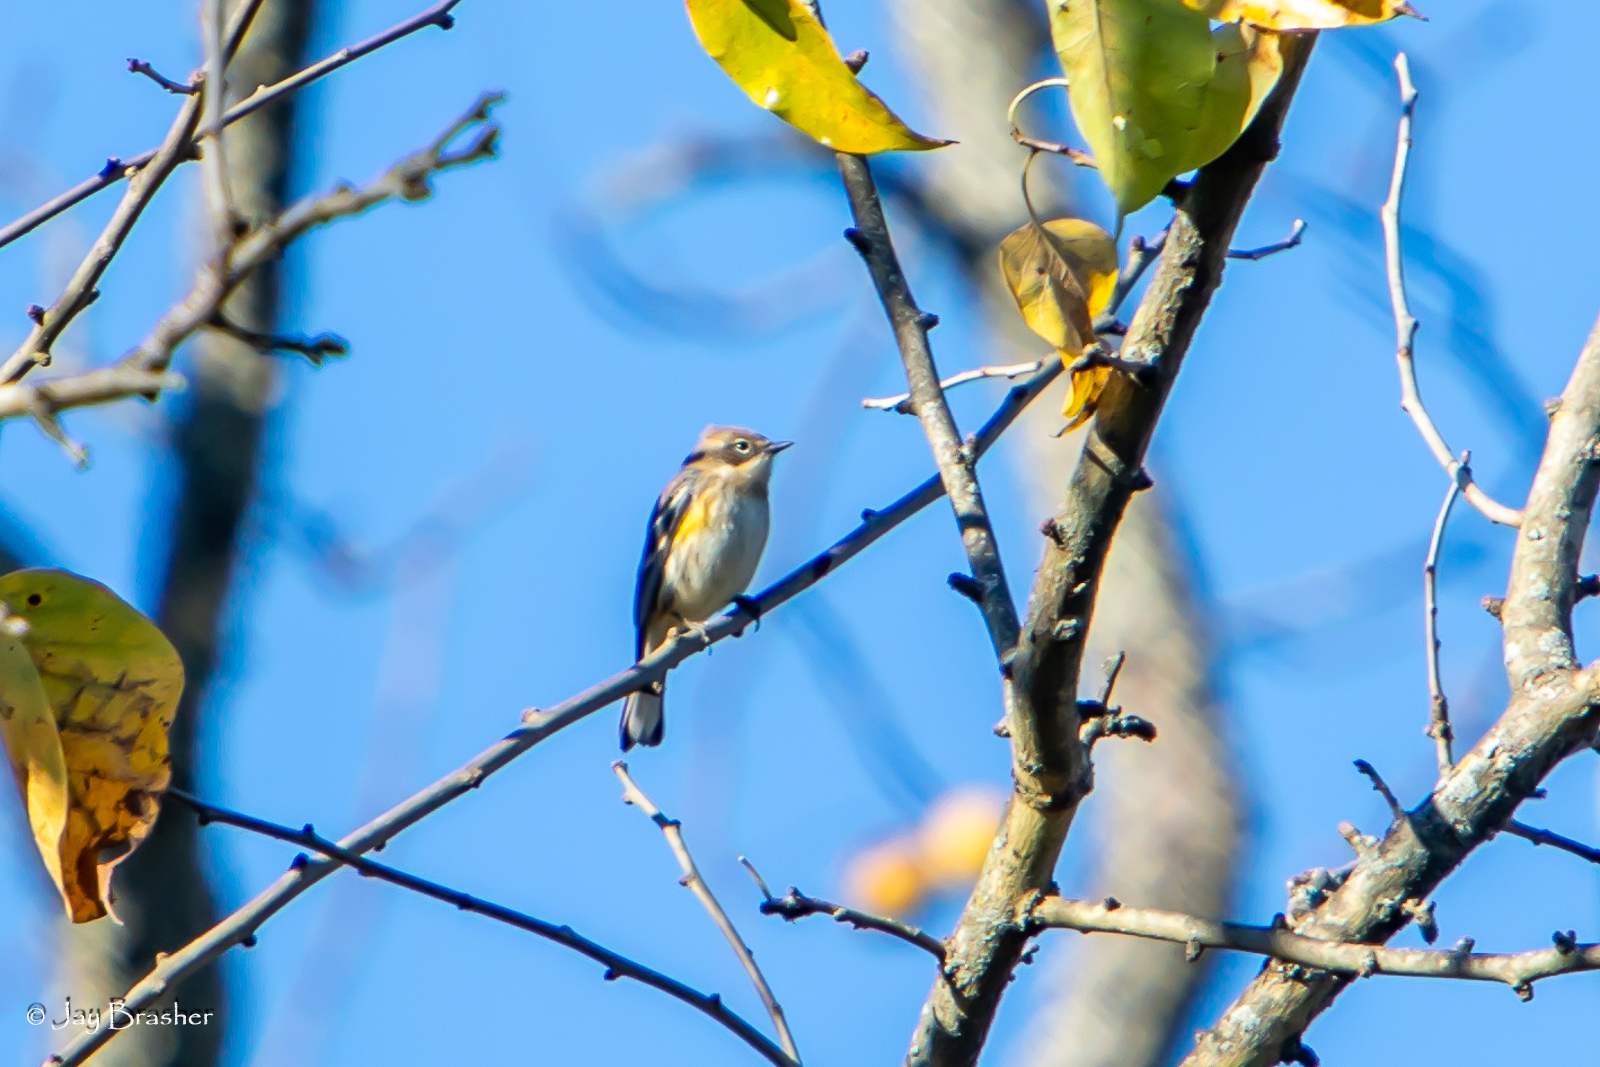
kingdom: Animalia
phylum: Chordata
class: Aves
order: Passeriformes
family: Parulidae
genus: Setophaga
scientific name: Setophaga coronata
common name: Myrtle warbler
